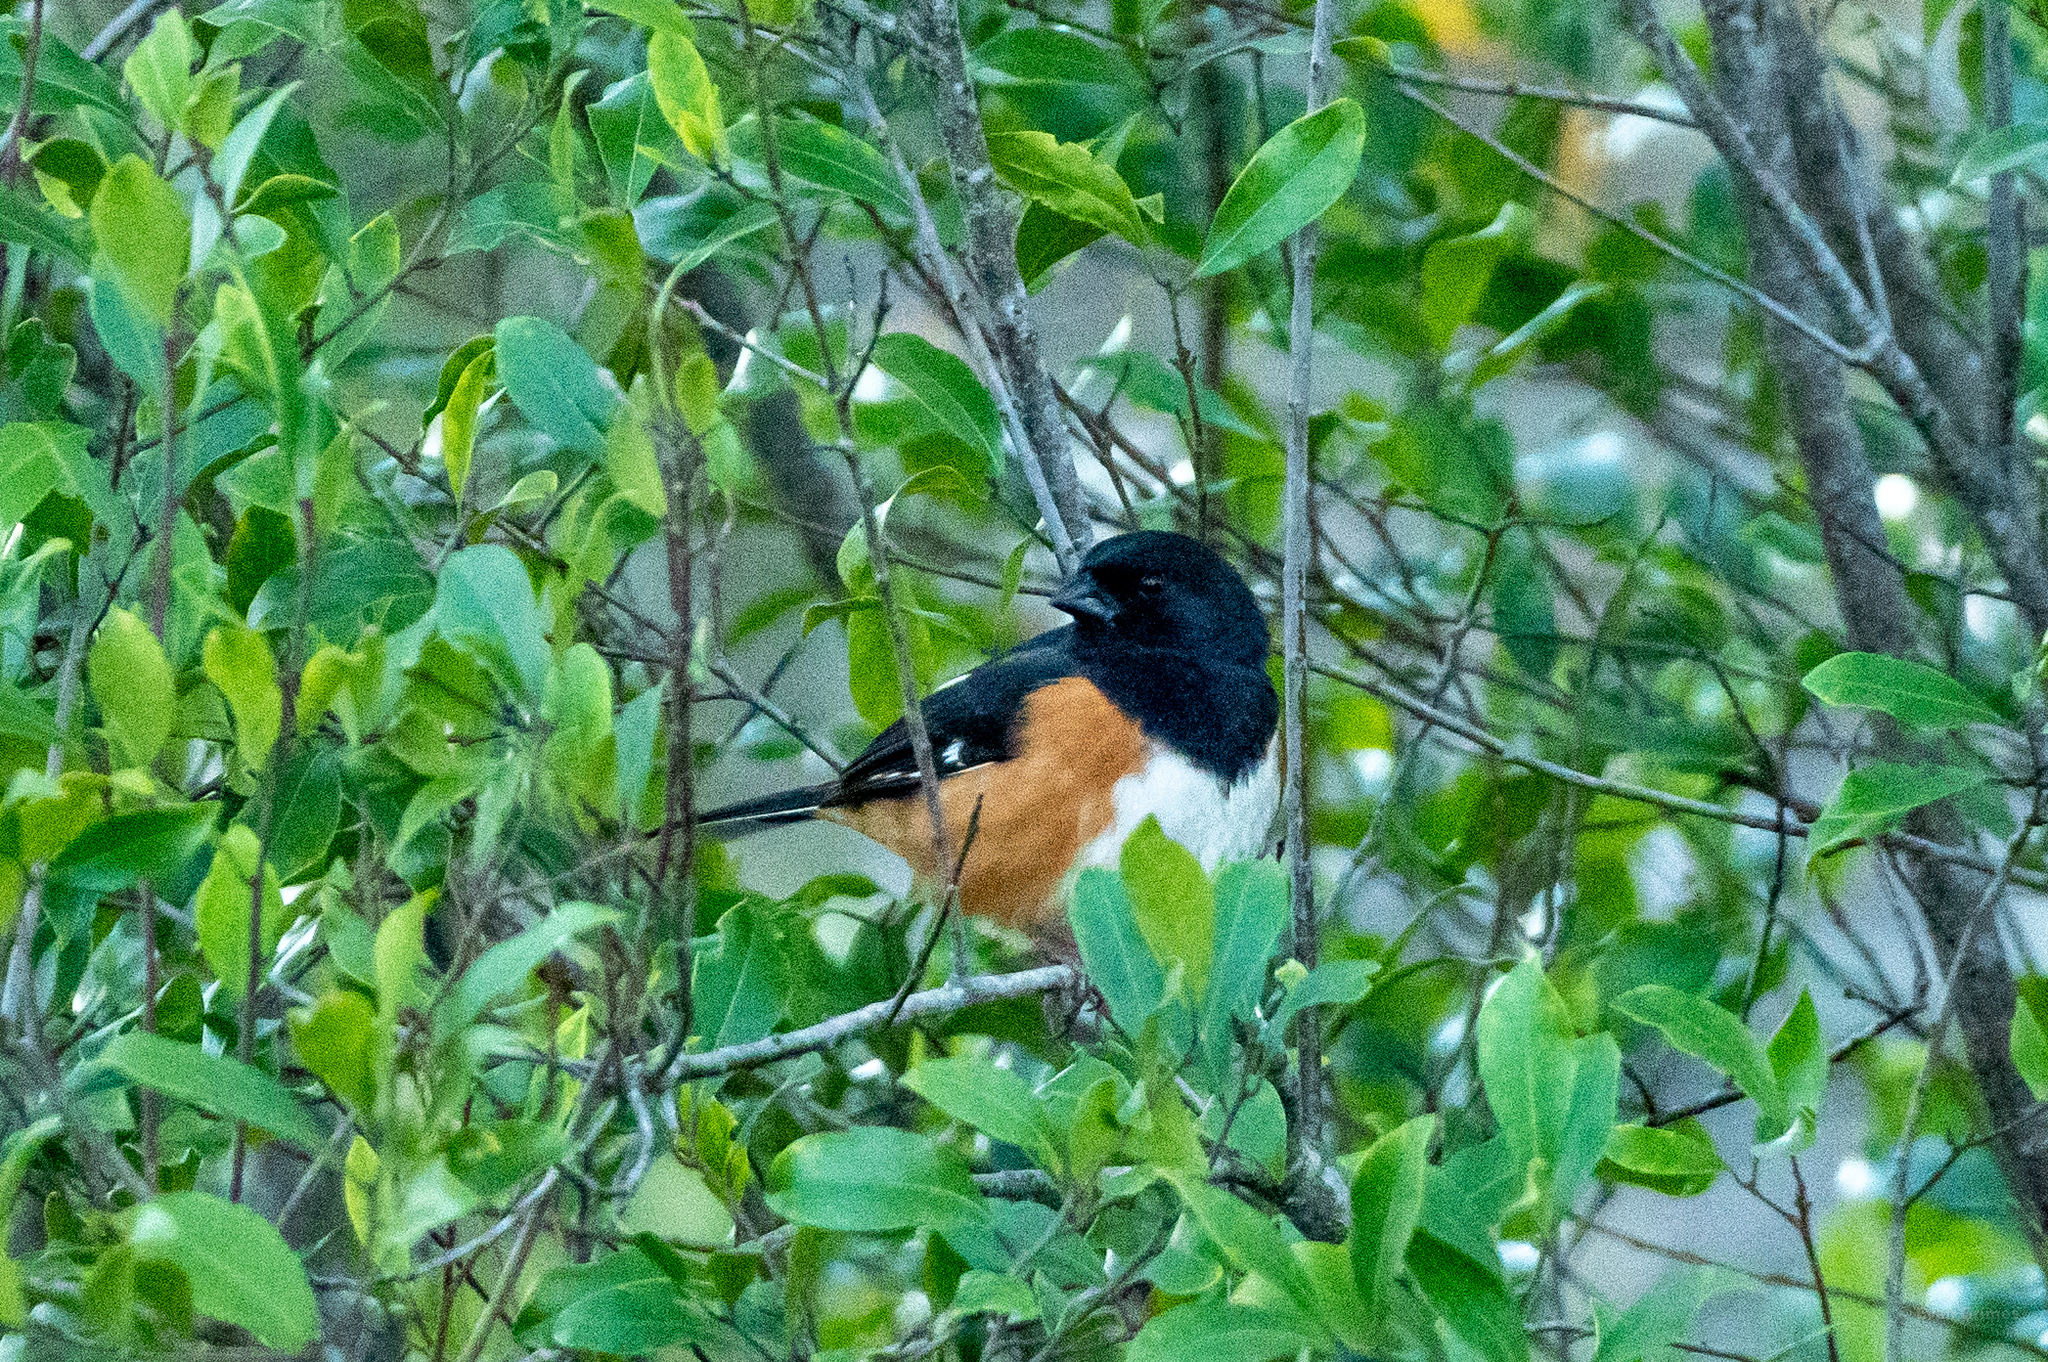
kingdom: Animalia
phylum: Chordata
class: Aves
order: Passeriformes
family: Passerellidae
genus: Pipilo
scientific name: Pipilo erythrophthalmus
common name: Eastern towhee
